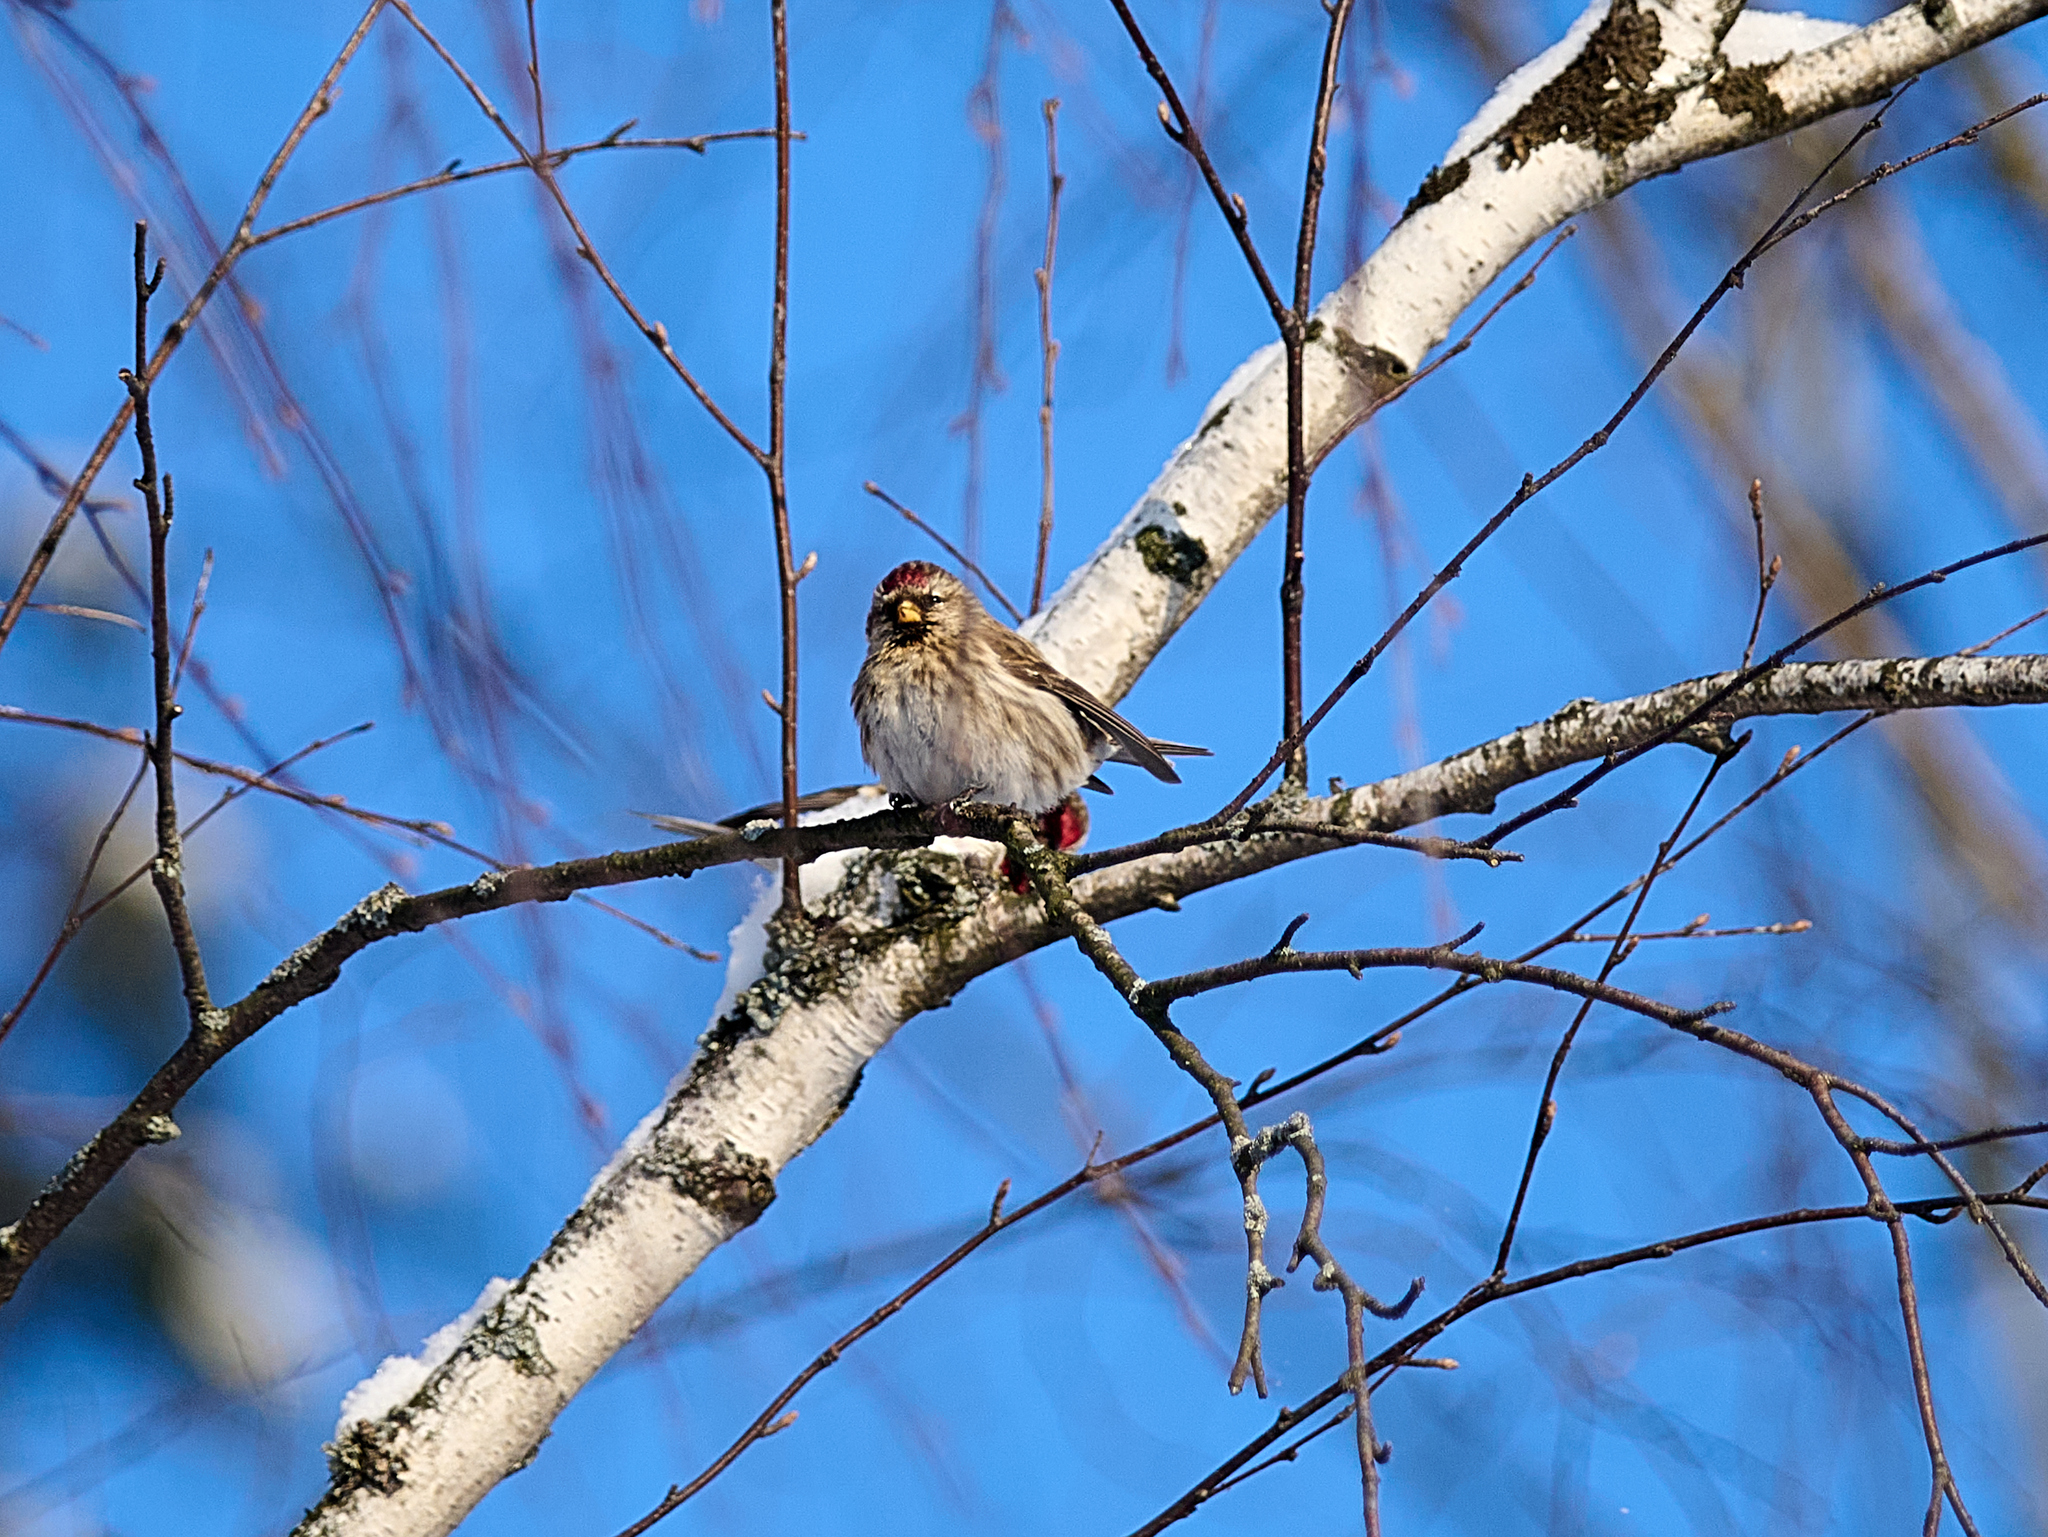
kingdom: Animalia
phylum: Chordata
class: Aves
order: Passeriformes
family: Fringillidae
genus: Acanthis
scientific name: Acanthis flammea
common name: Common redpoll
